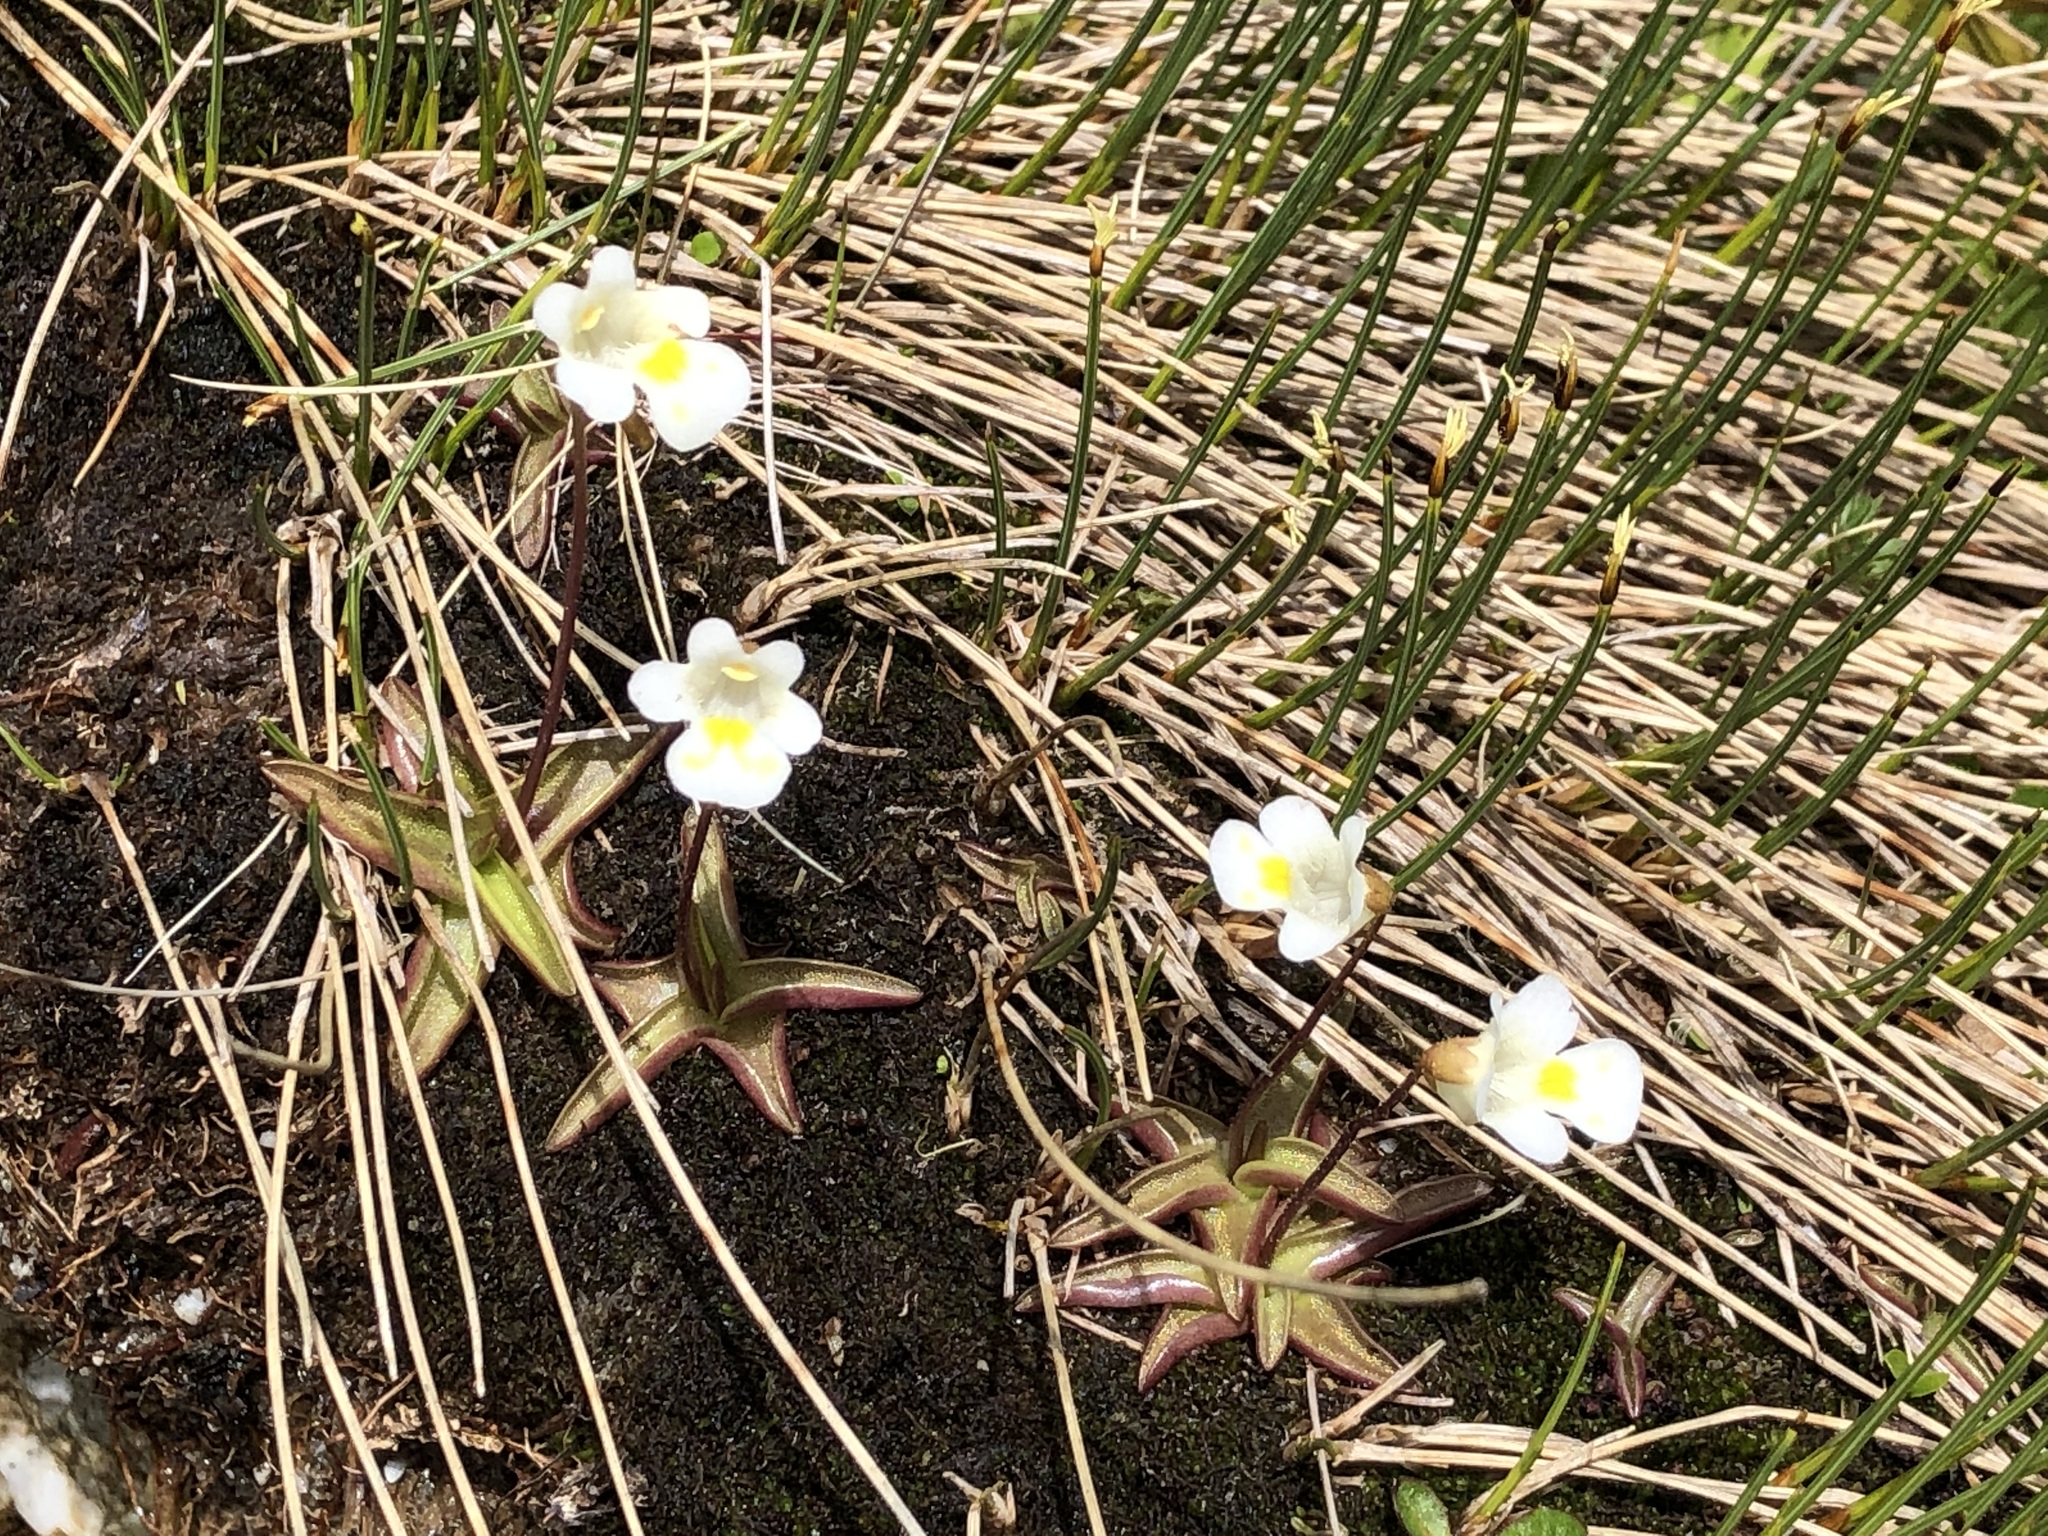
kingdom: Plantae
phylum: Tracheophyta
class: Magnoliopsida
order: Lamiales
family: Lentibulariaceae
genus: Pinguicula
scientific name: Pinguicula alpina
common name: Alpine butterwort
